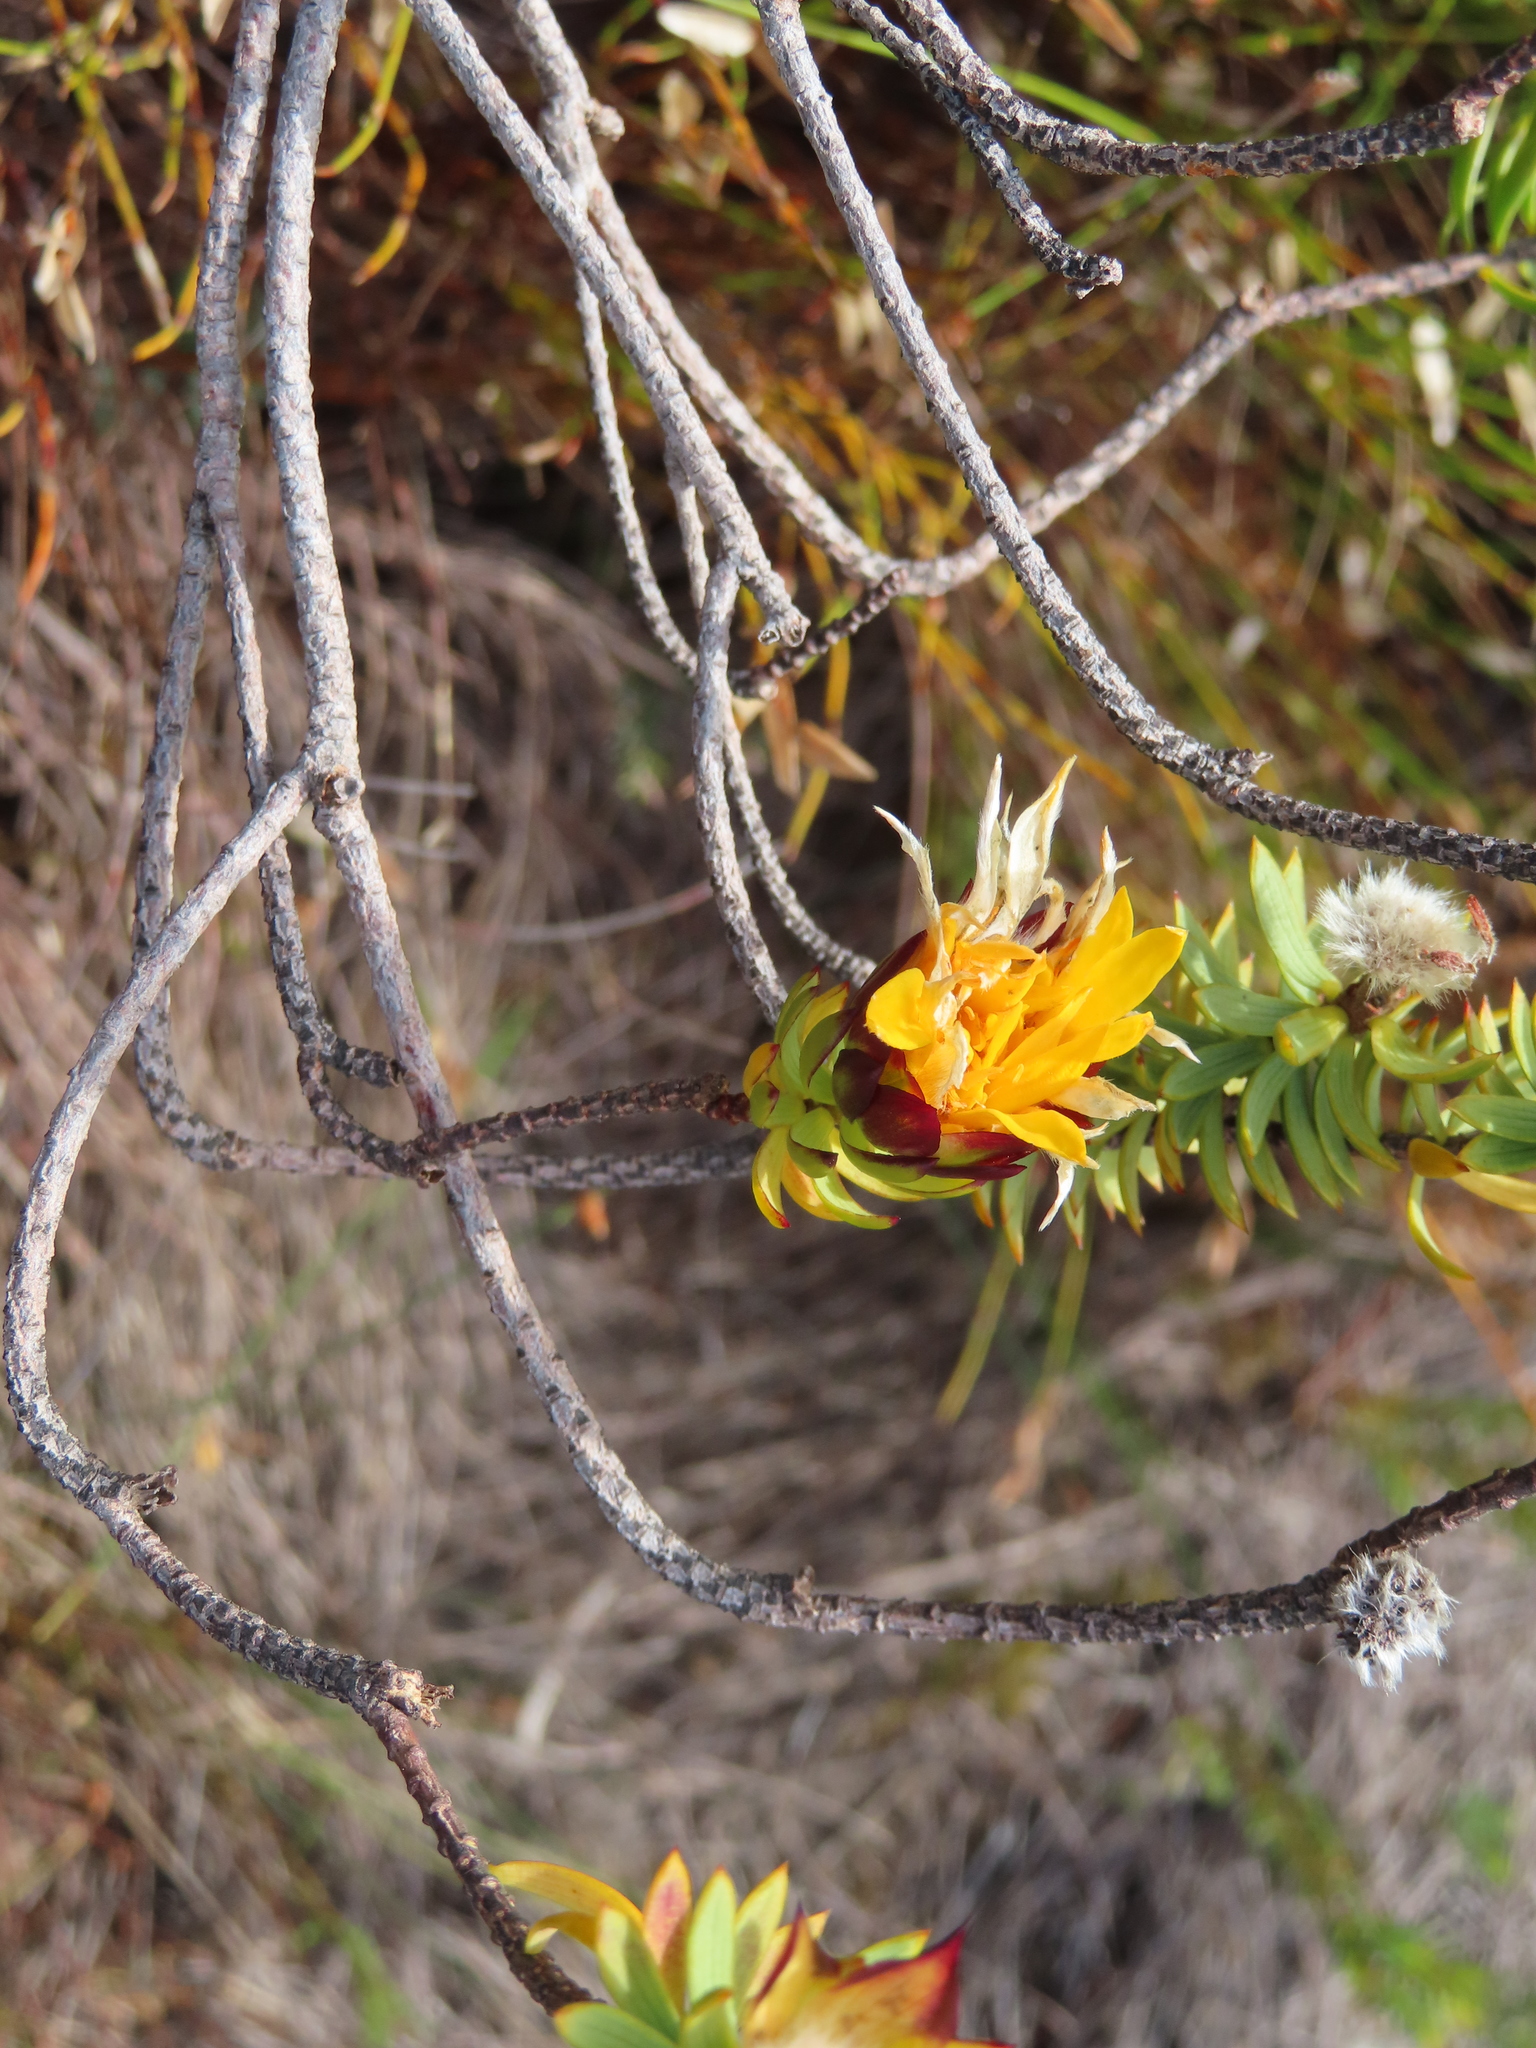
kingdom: Plantae
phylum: Tracheophyta
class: Magnoliopsida
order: Malvales
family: Thymelaeaceae
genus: Lachnaea
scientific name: Lachnaea aurea
